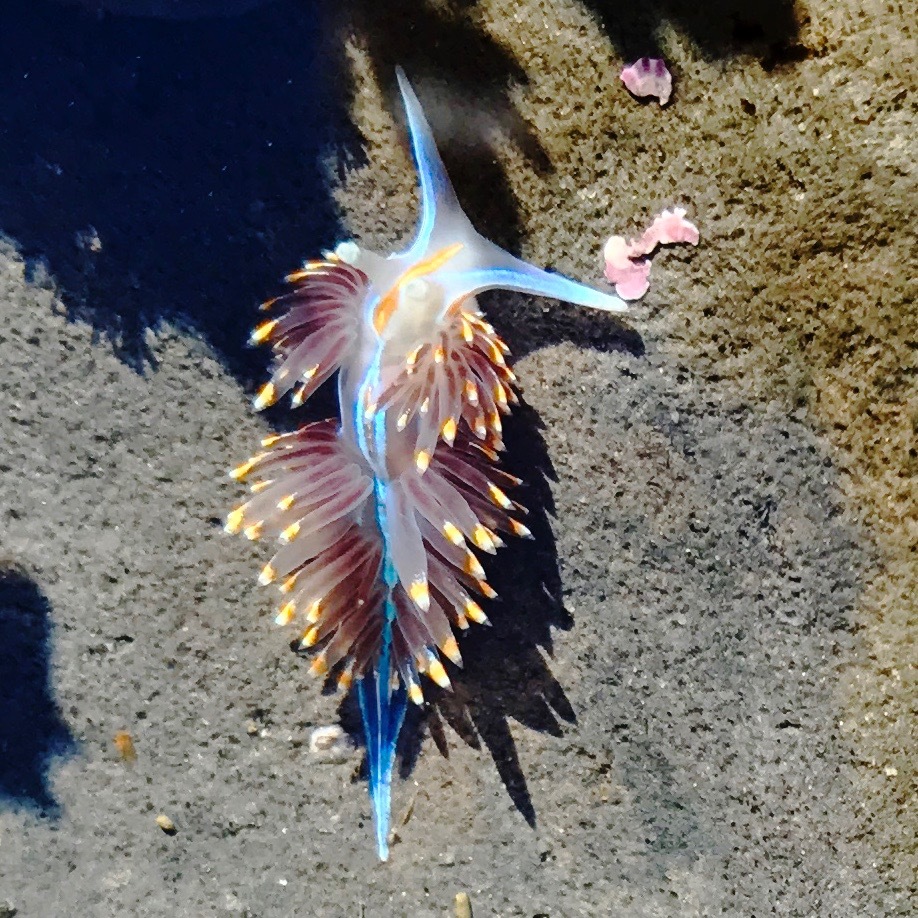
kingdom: Animalia
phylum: Mollusca
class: Gastropoda
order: Nudibranchia
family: Myrrhinidae
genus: Hermissenda
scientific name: Hermissenda opalescens
